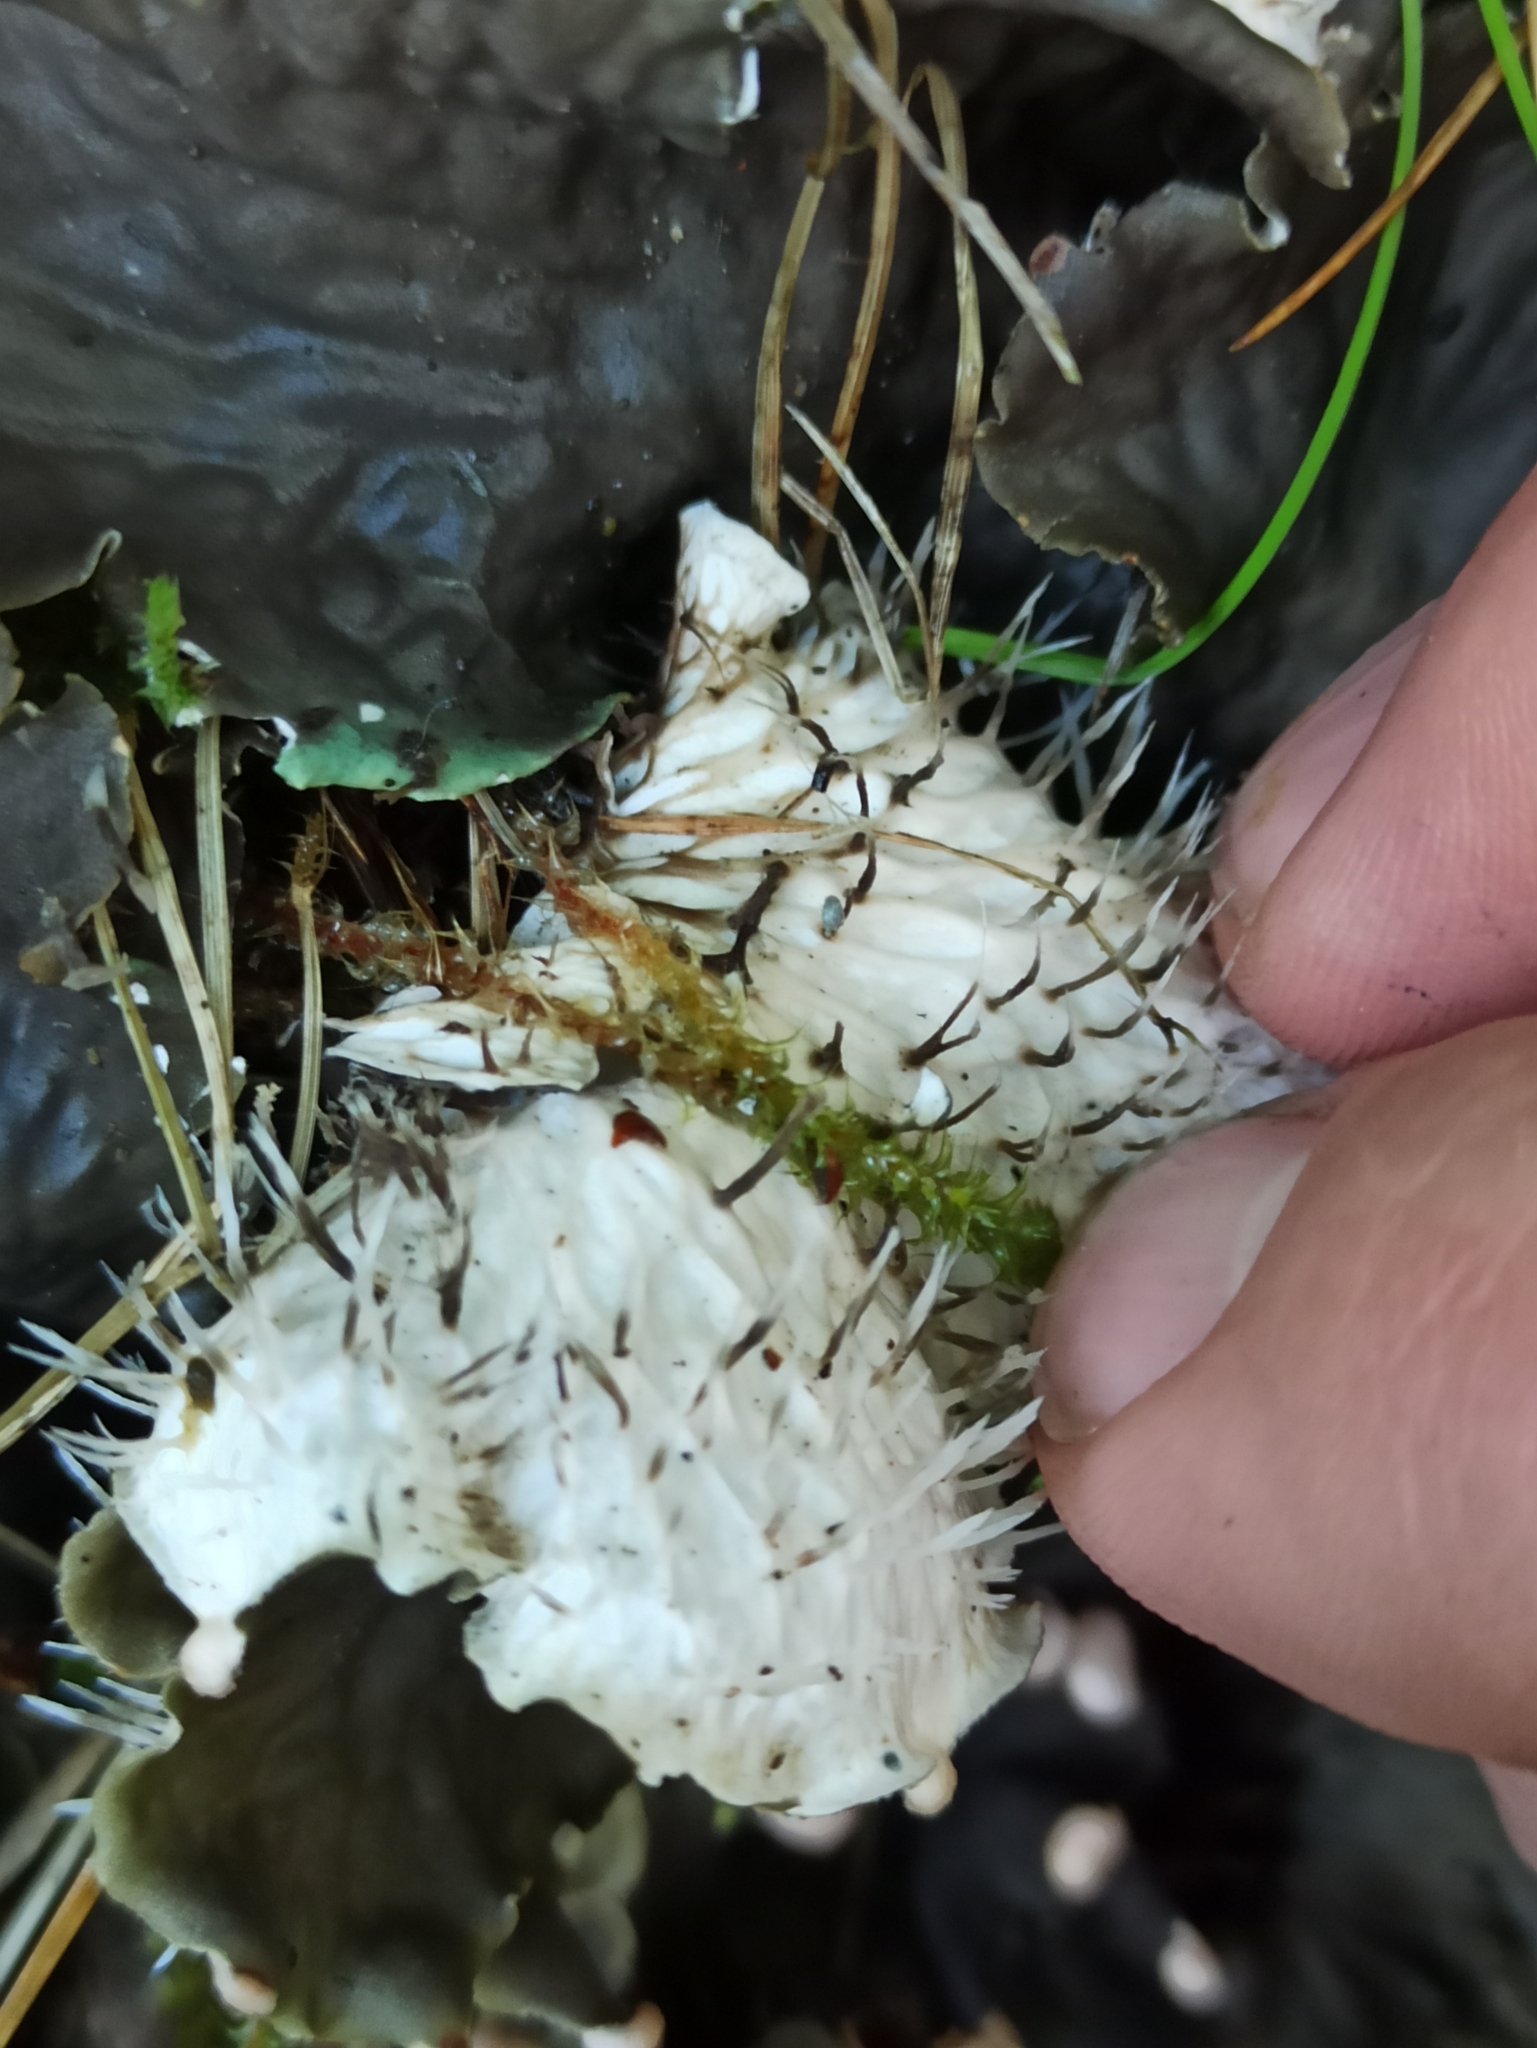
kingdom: Fungi
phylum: Ascomycota
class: Lecanoromycetes
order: Peltigerales
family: Peltigeraceae
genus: Peltigera
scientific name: Peltigera praetextata
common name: Scaly dog-lichen
